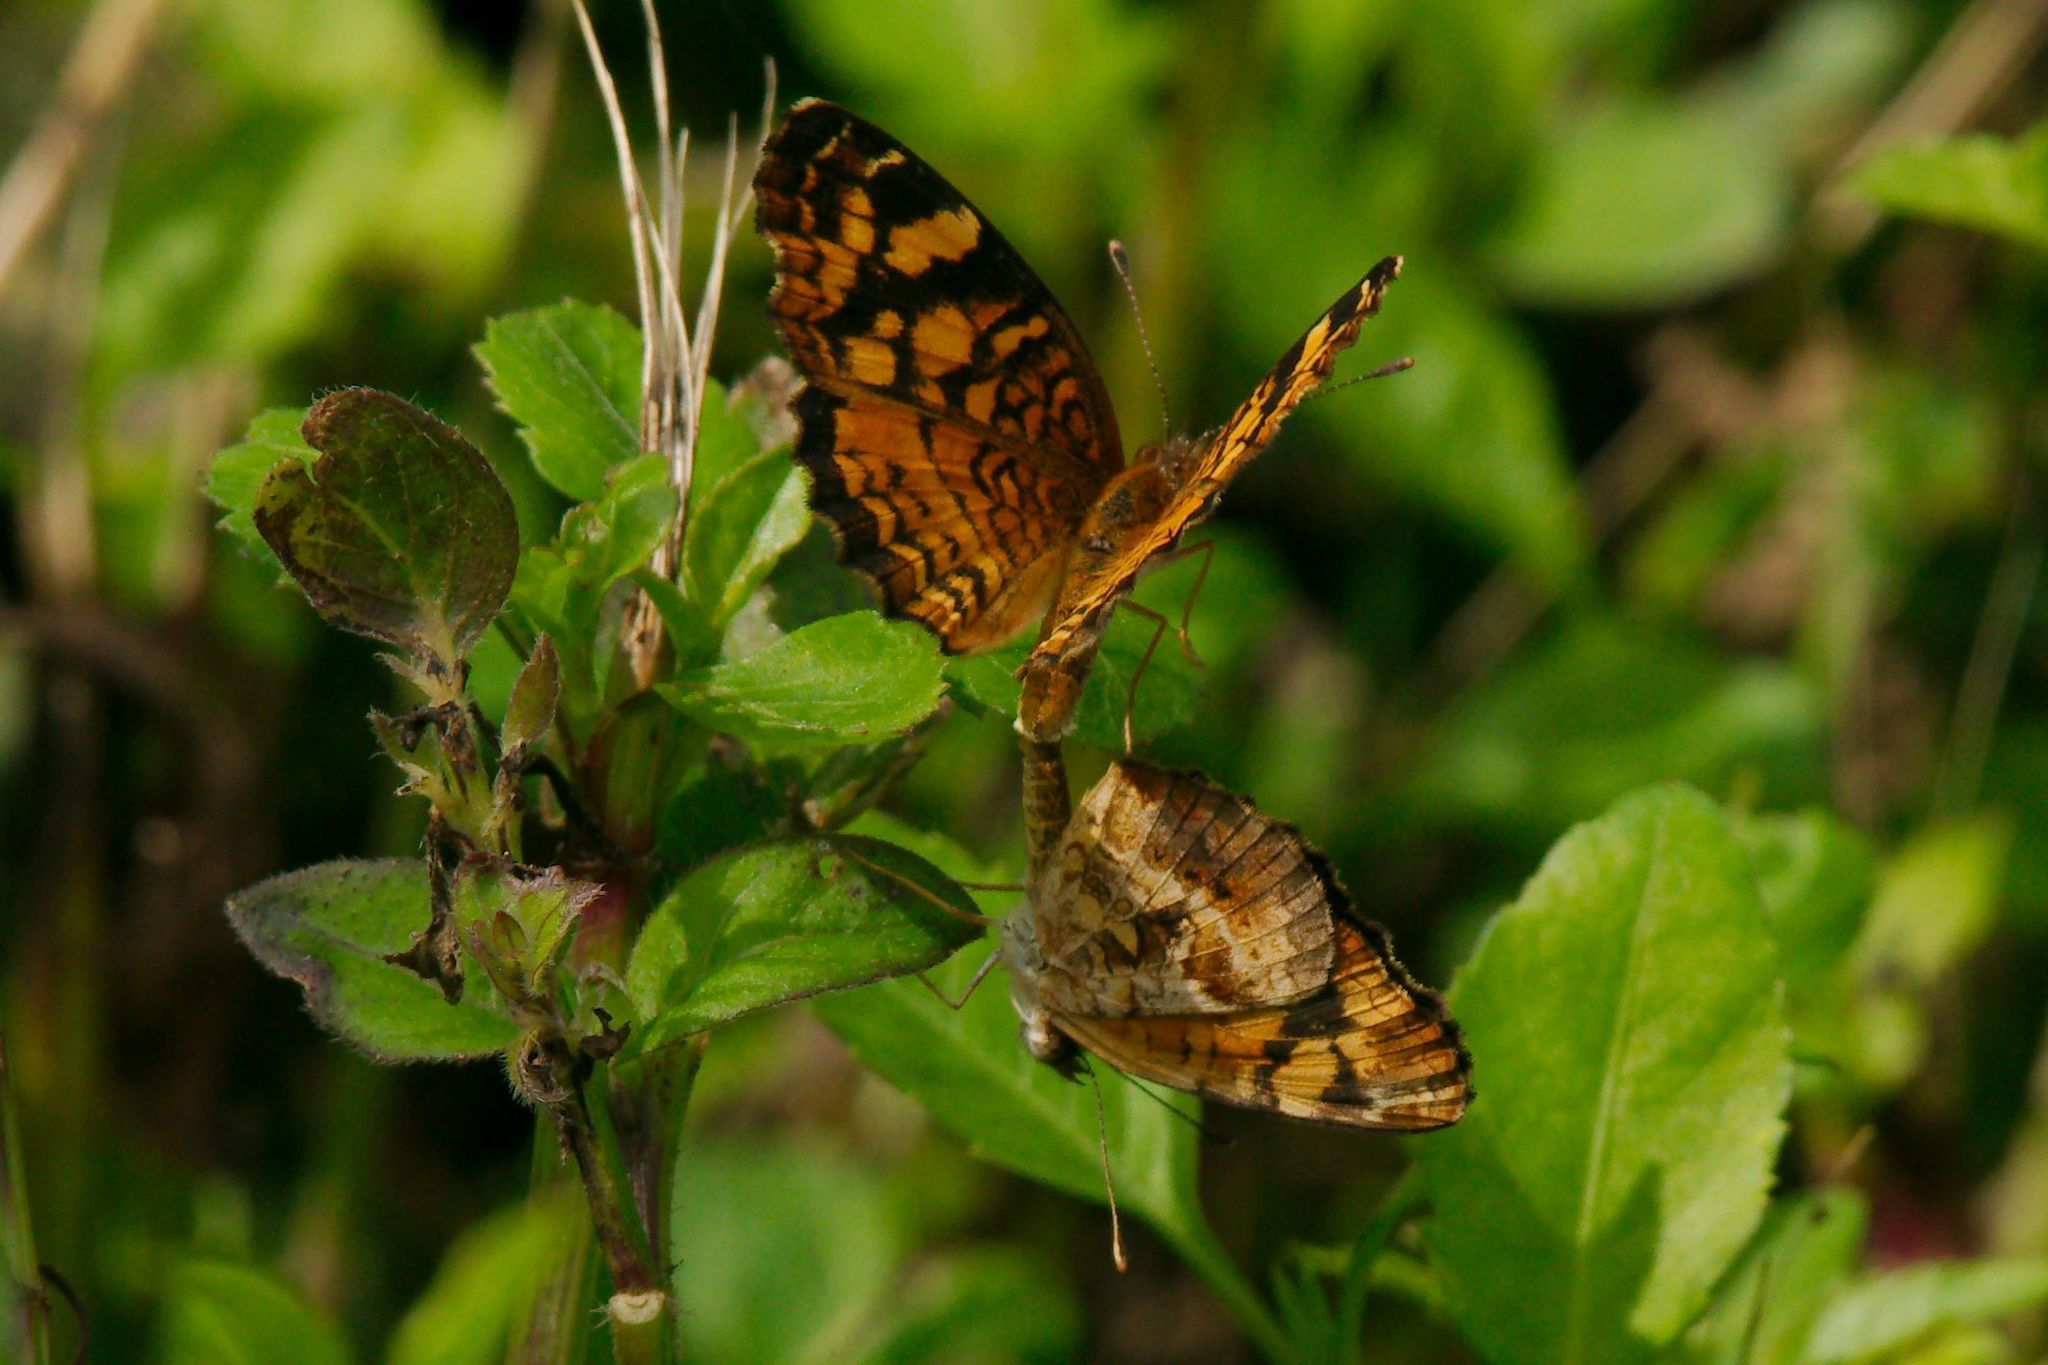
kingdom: Animalia
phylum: Arthropoda
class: Insecta
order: Lepidoptera
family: Nymphalidae
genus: Anthanassa
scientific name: Anthanassa frisia
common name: Cuban crescent
